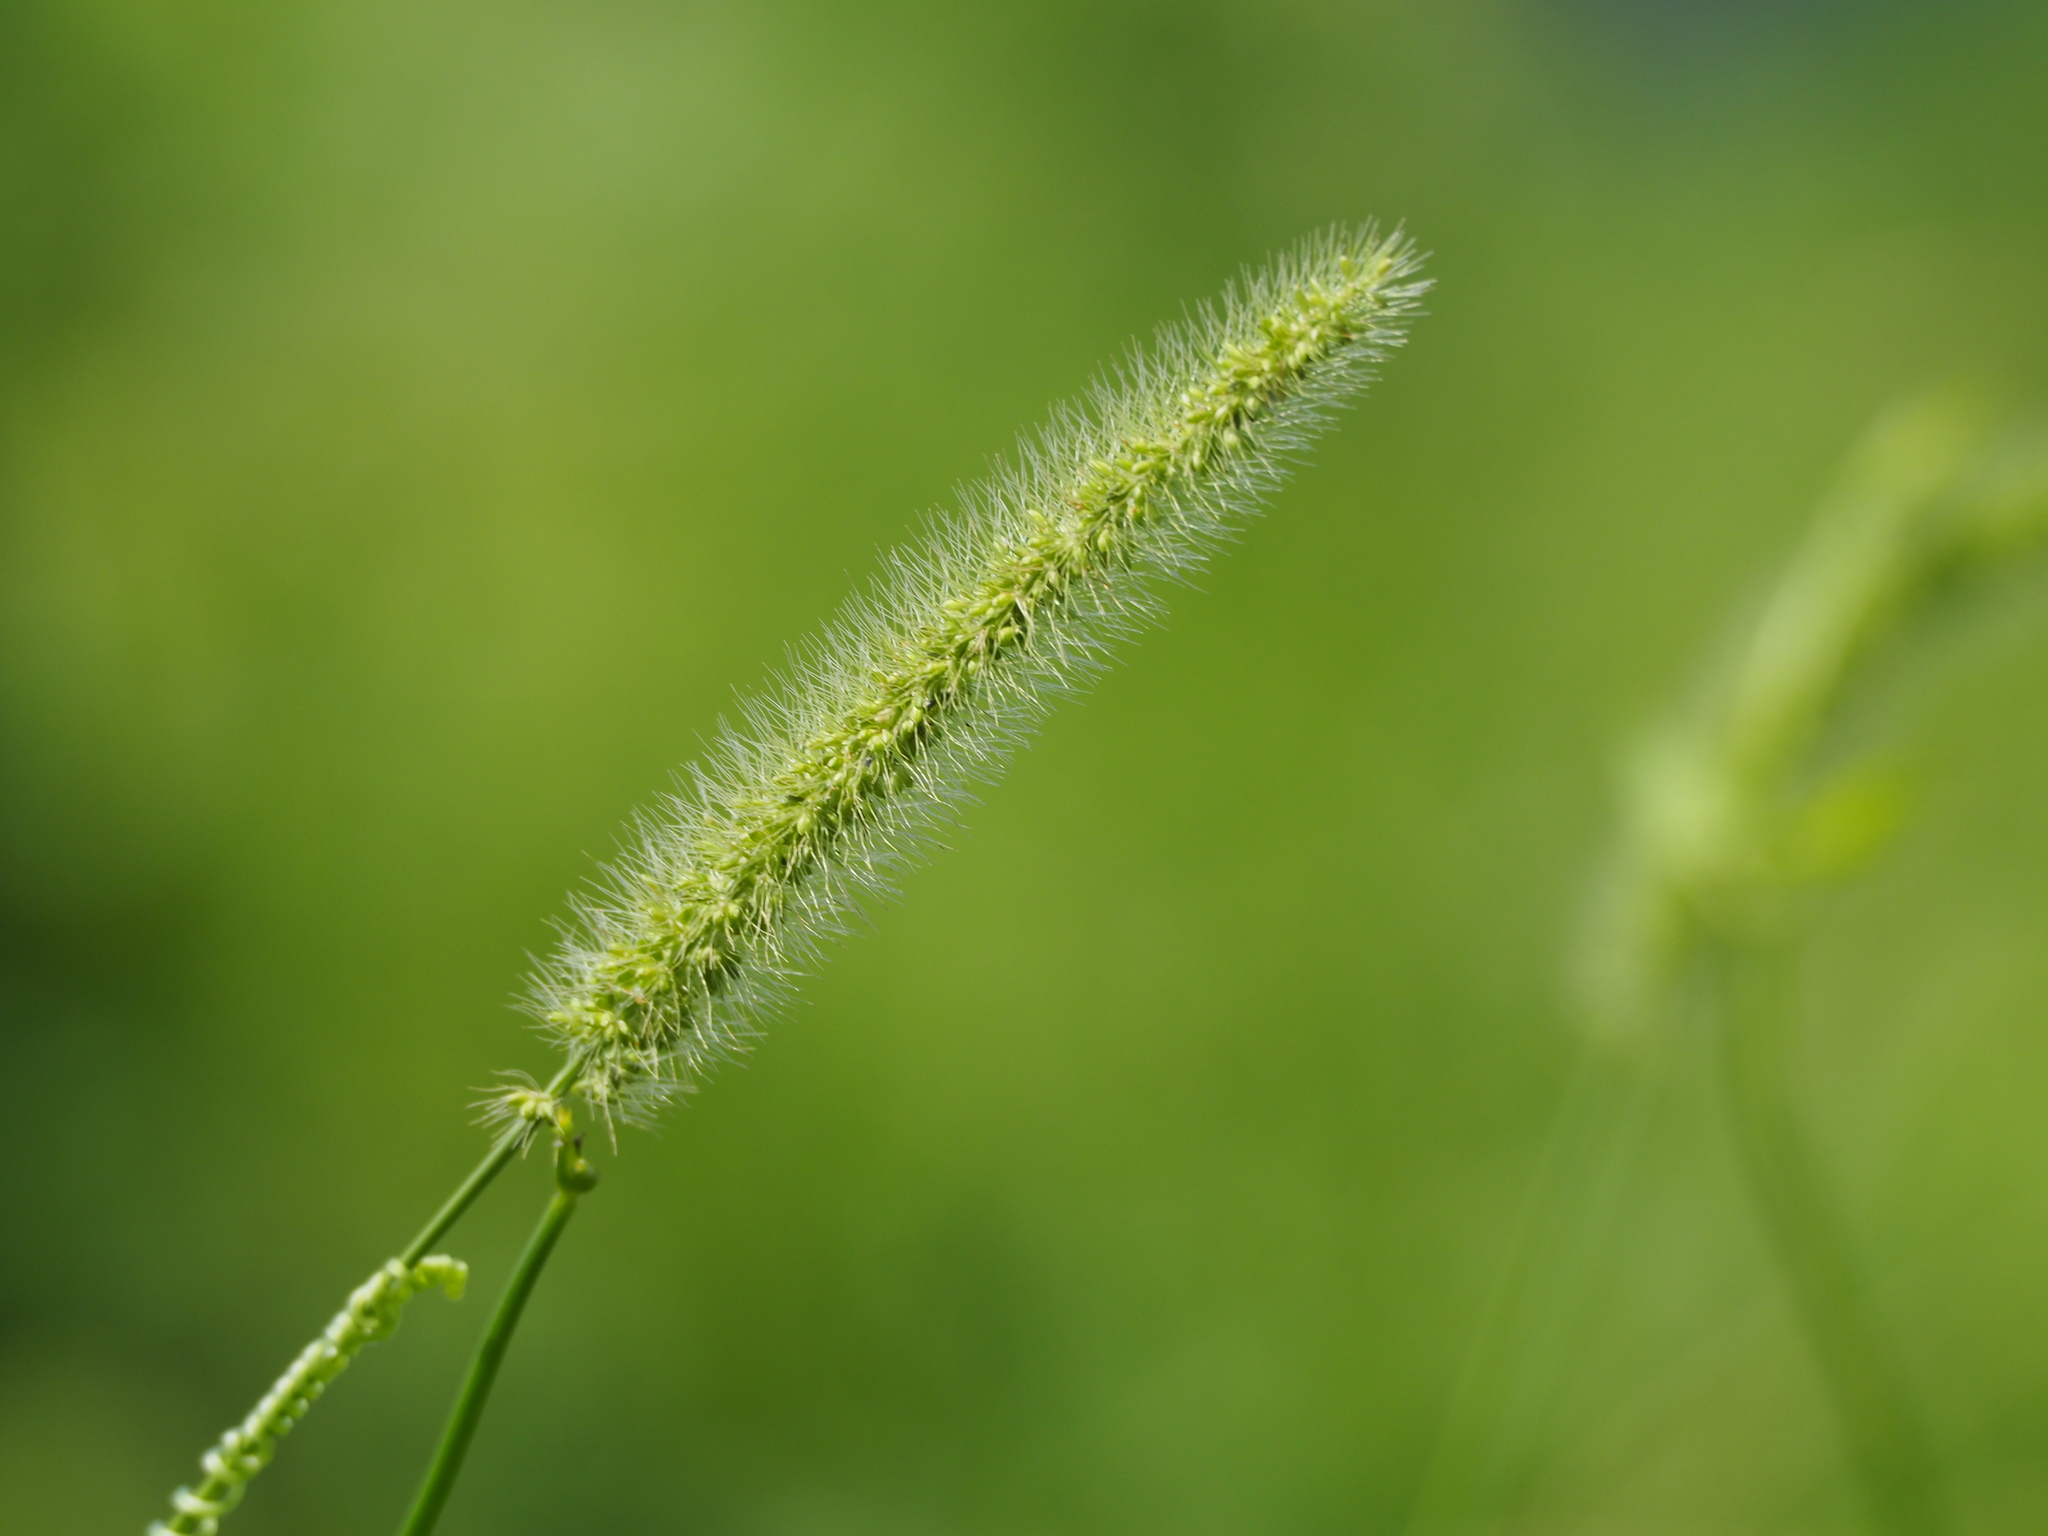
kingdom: Plantae
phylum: Tracheophyta
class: Liliopsida
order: Poales
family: Poaceae
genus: Setaria
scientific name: Setaria verticillata
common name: Hooked bristlegrass
